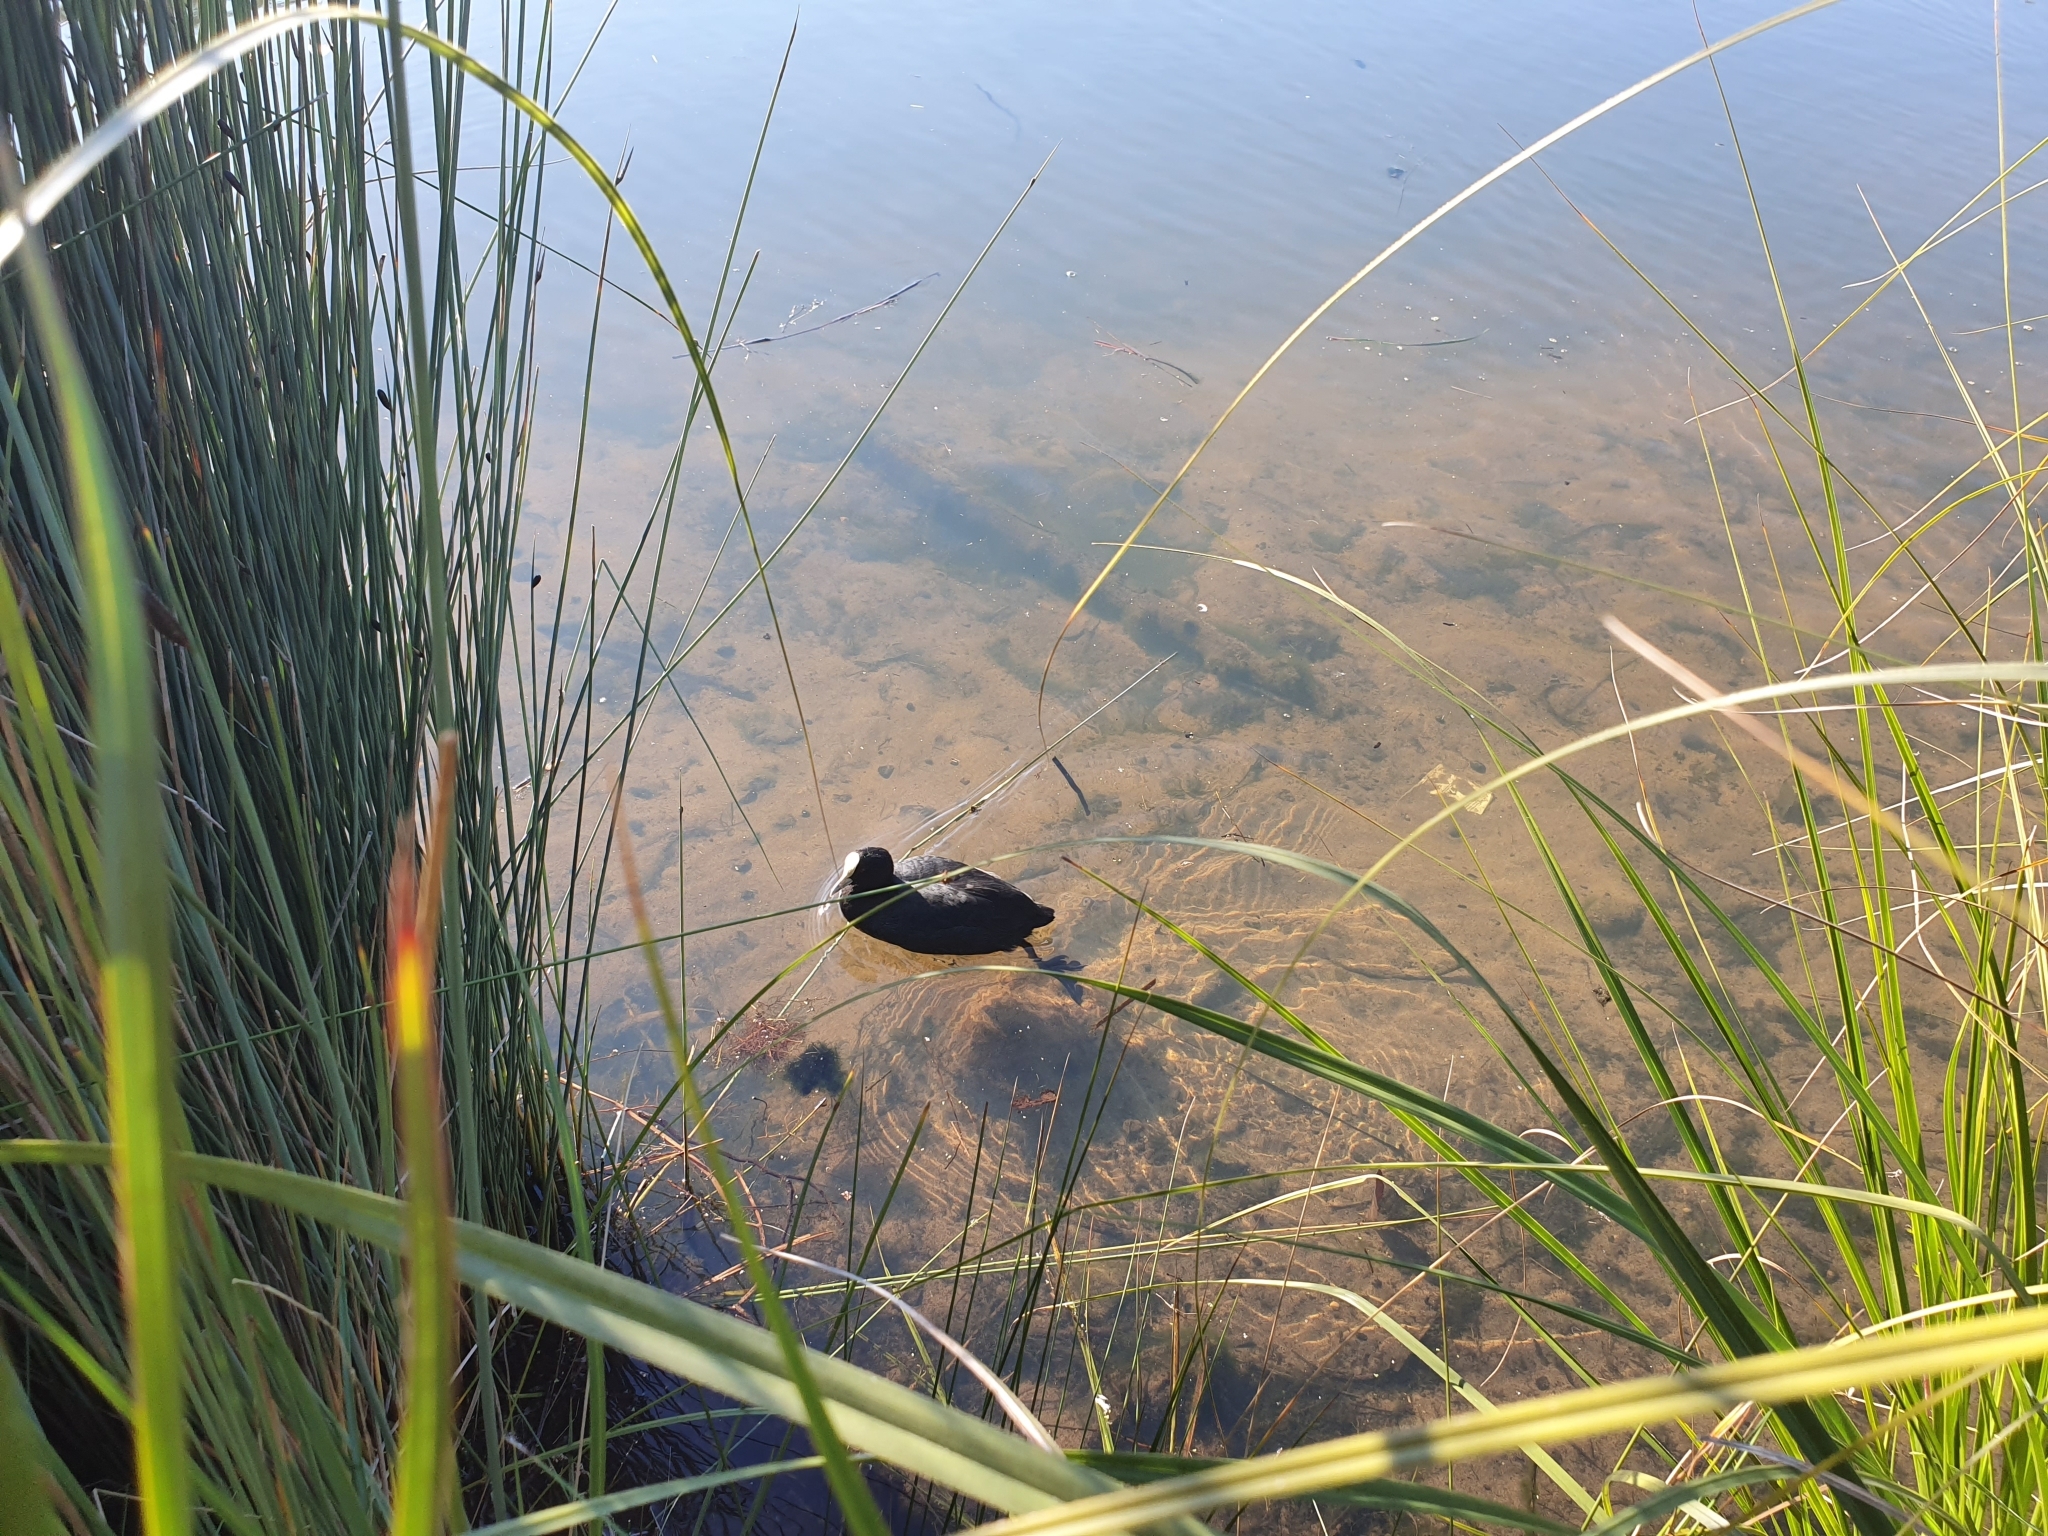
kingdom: Animalia
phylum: Chordata
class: Aves
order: Gruiformes
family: Rallidae
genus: Fulica
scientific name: Fulica atra
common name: Eurasian coot
